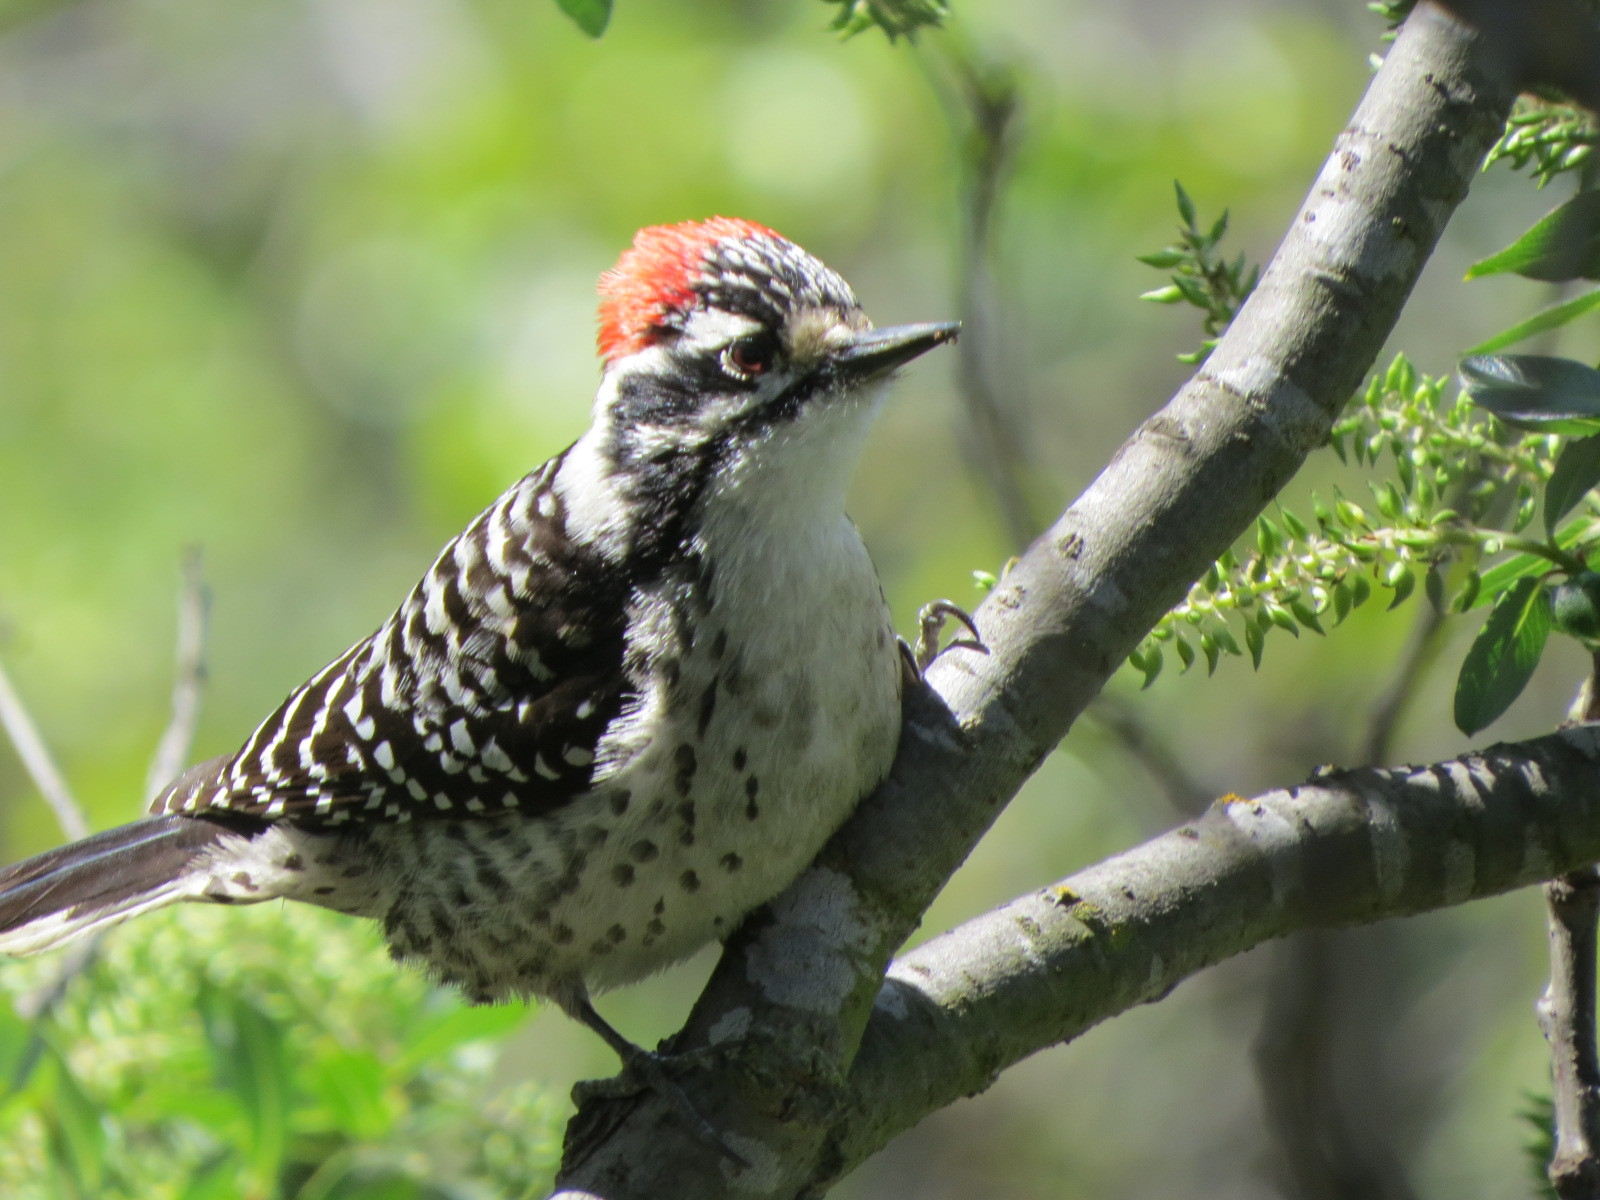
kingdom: Animalia
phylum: Chordata
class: Aves
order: Piciformes
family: Picidae
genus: Dryobates
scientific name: Dryobates nuttallii
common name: Nuttall's woodpecker
